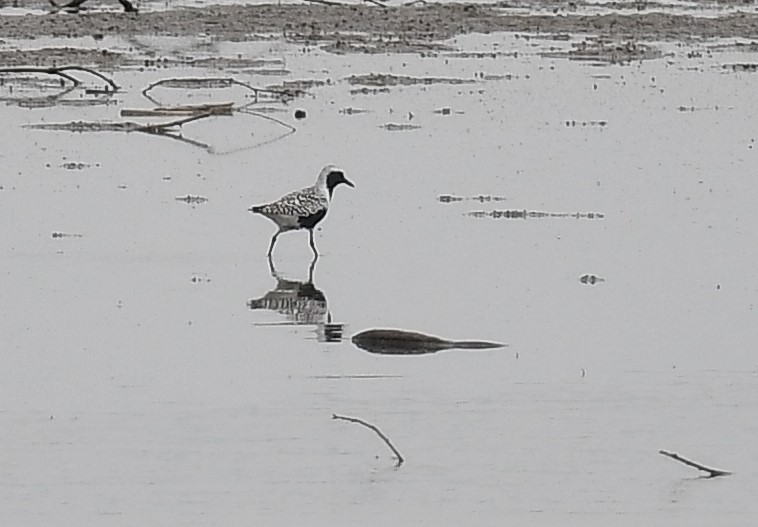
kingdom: Animalia
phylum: Chordata
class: Aves
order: Charadriiformes
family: Charadriidae
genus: Pluvialis
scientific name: Pluvialis squatarola
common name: Grey plover
